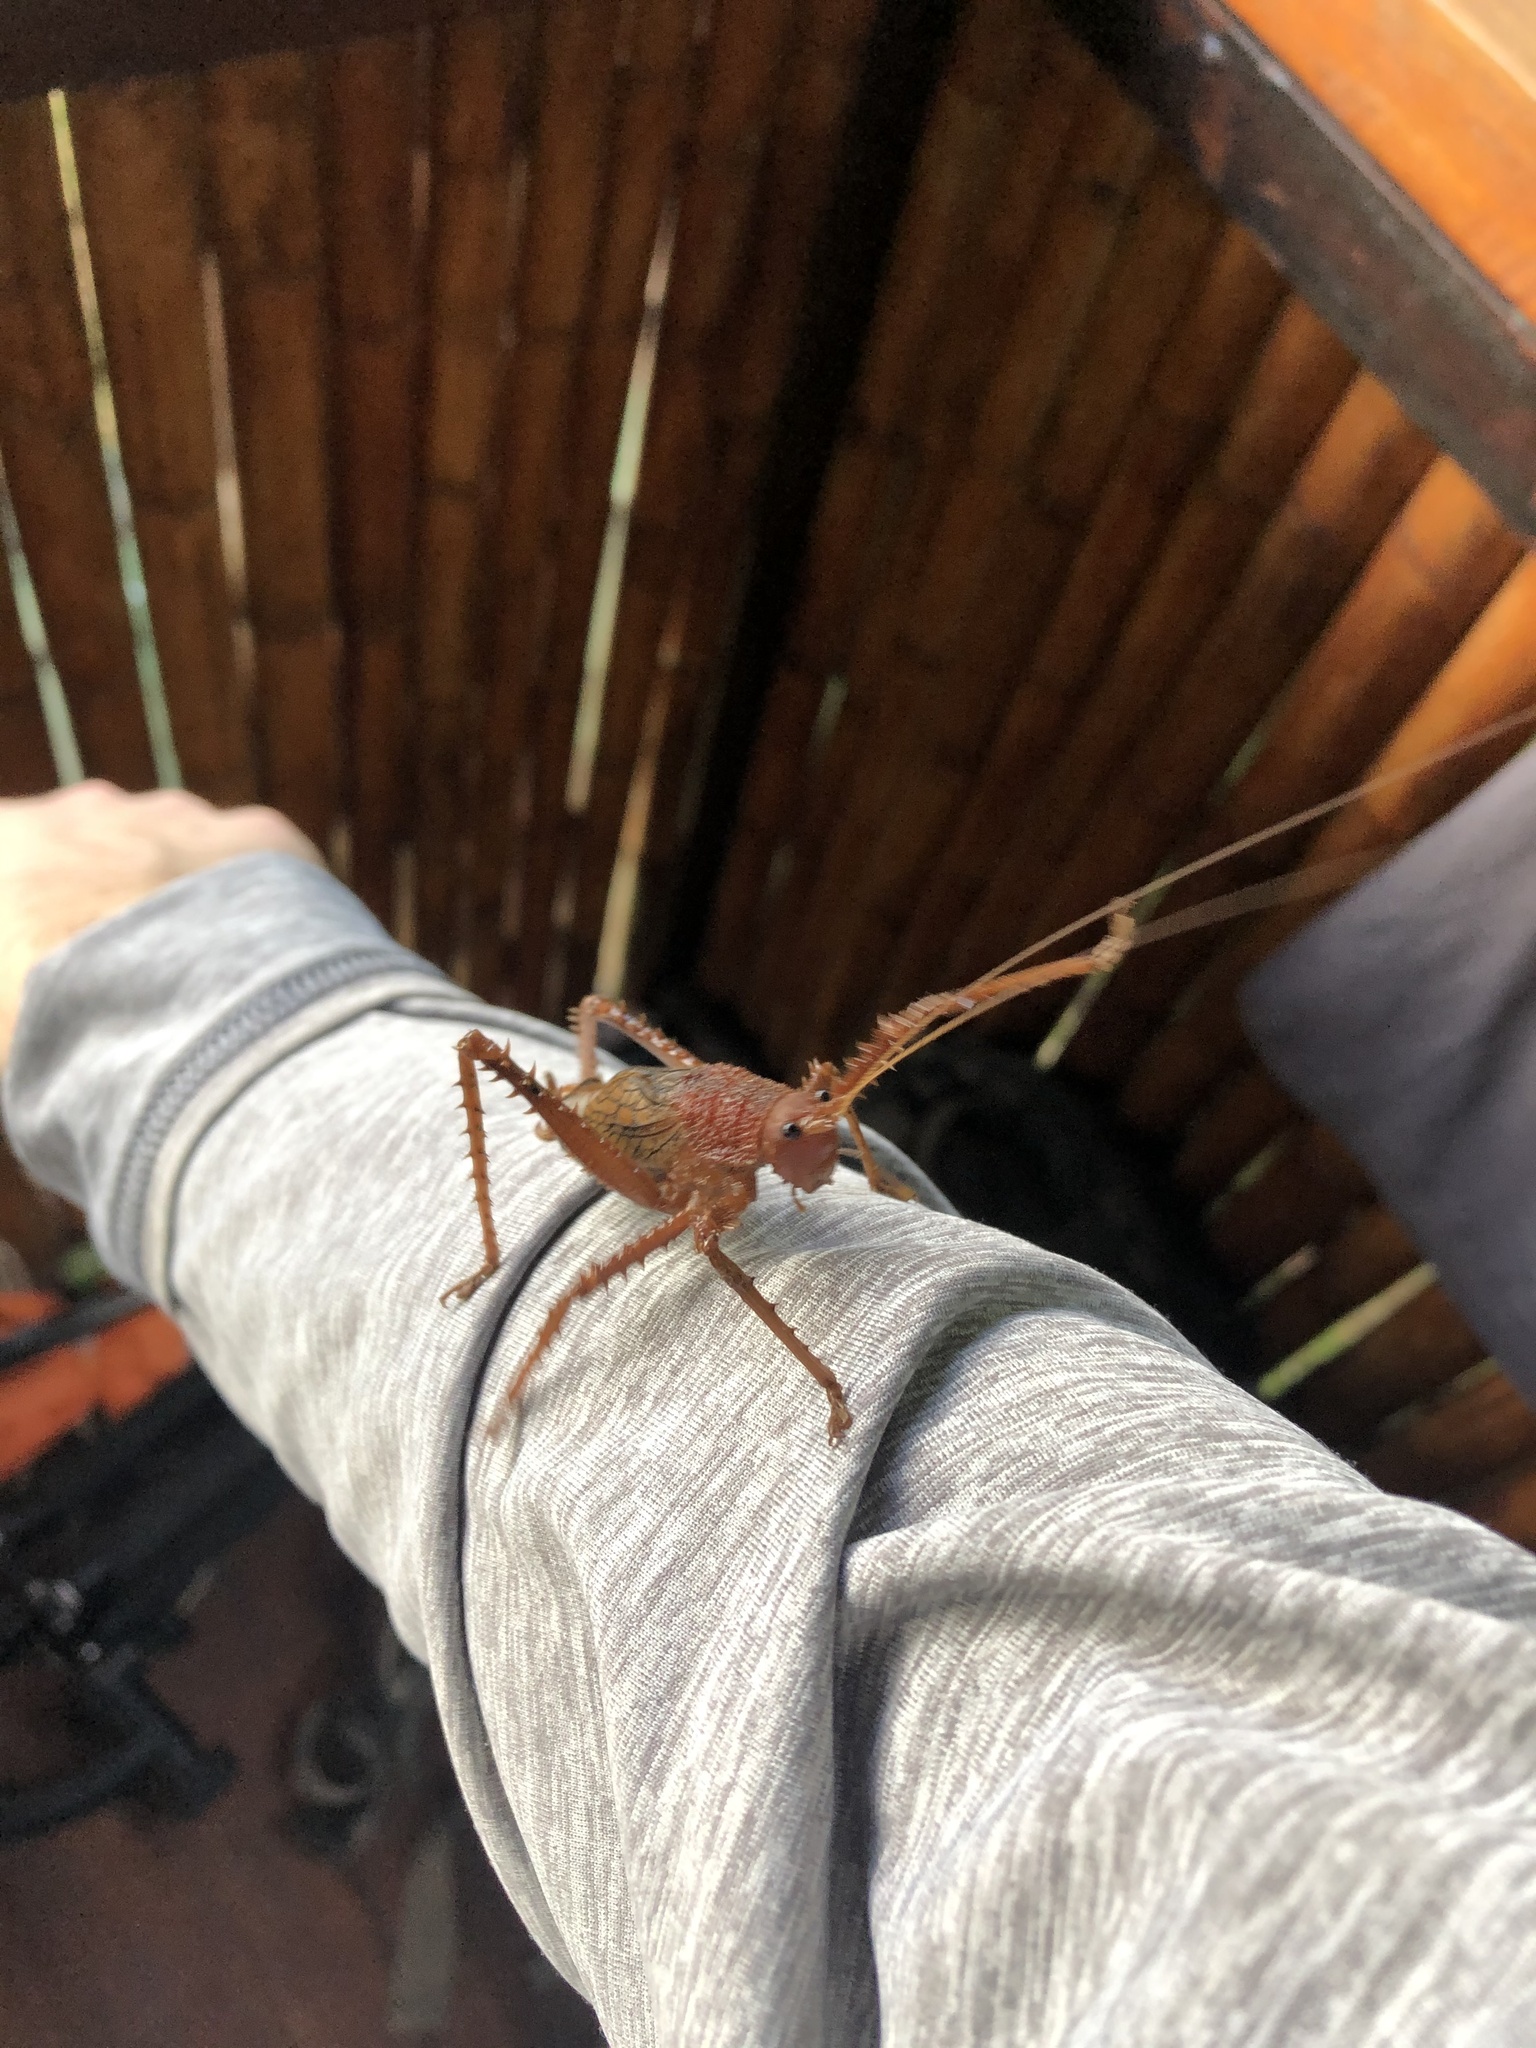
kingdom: Animalia
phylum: Arthropoda
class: Insecta
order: Orthoptera
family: Tettigoniidae
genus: Choeroparnops
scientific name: Choeroparnops forcipatus
